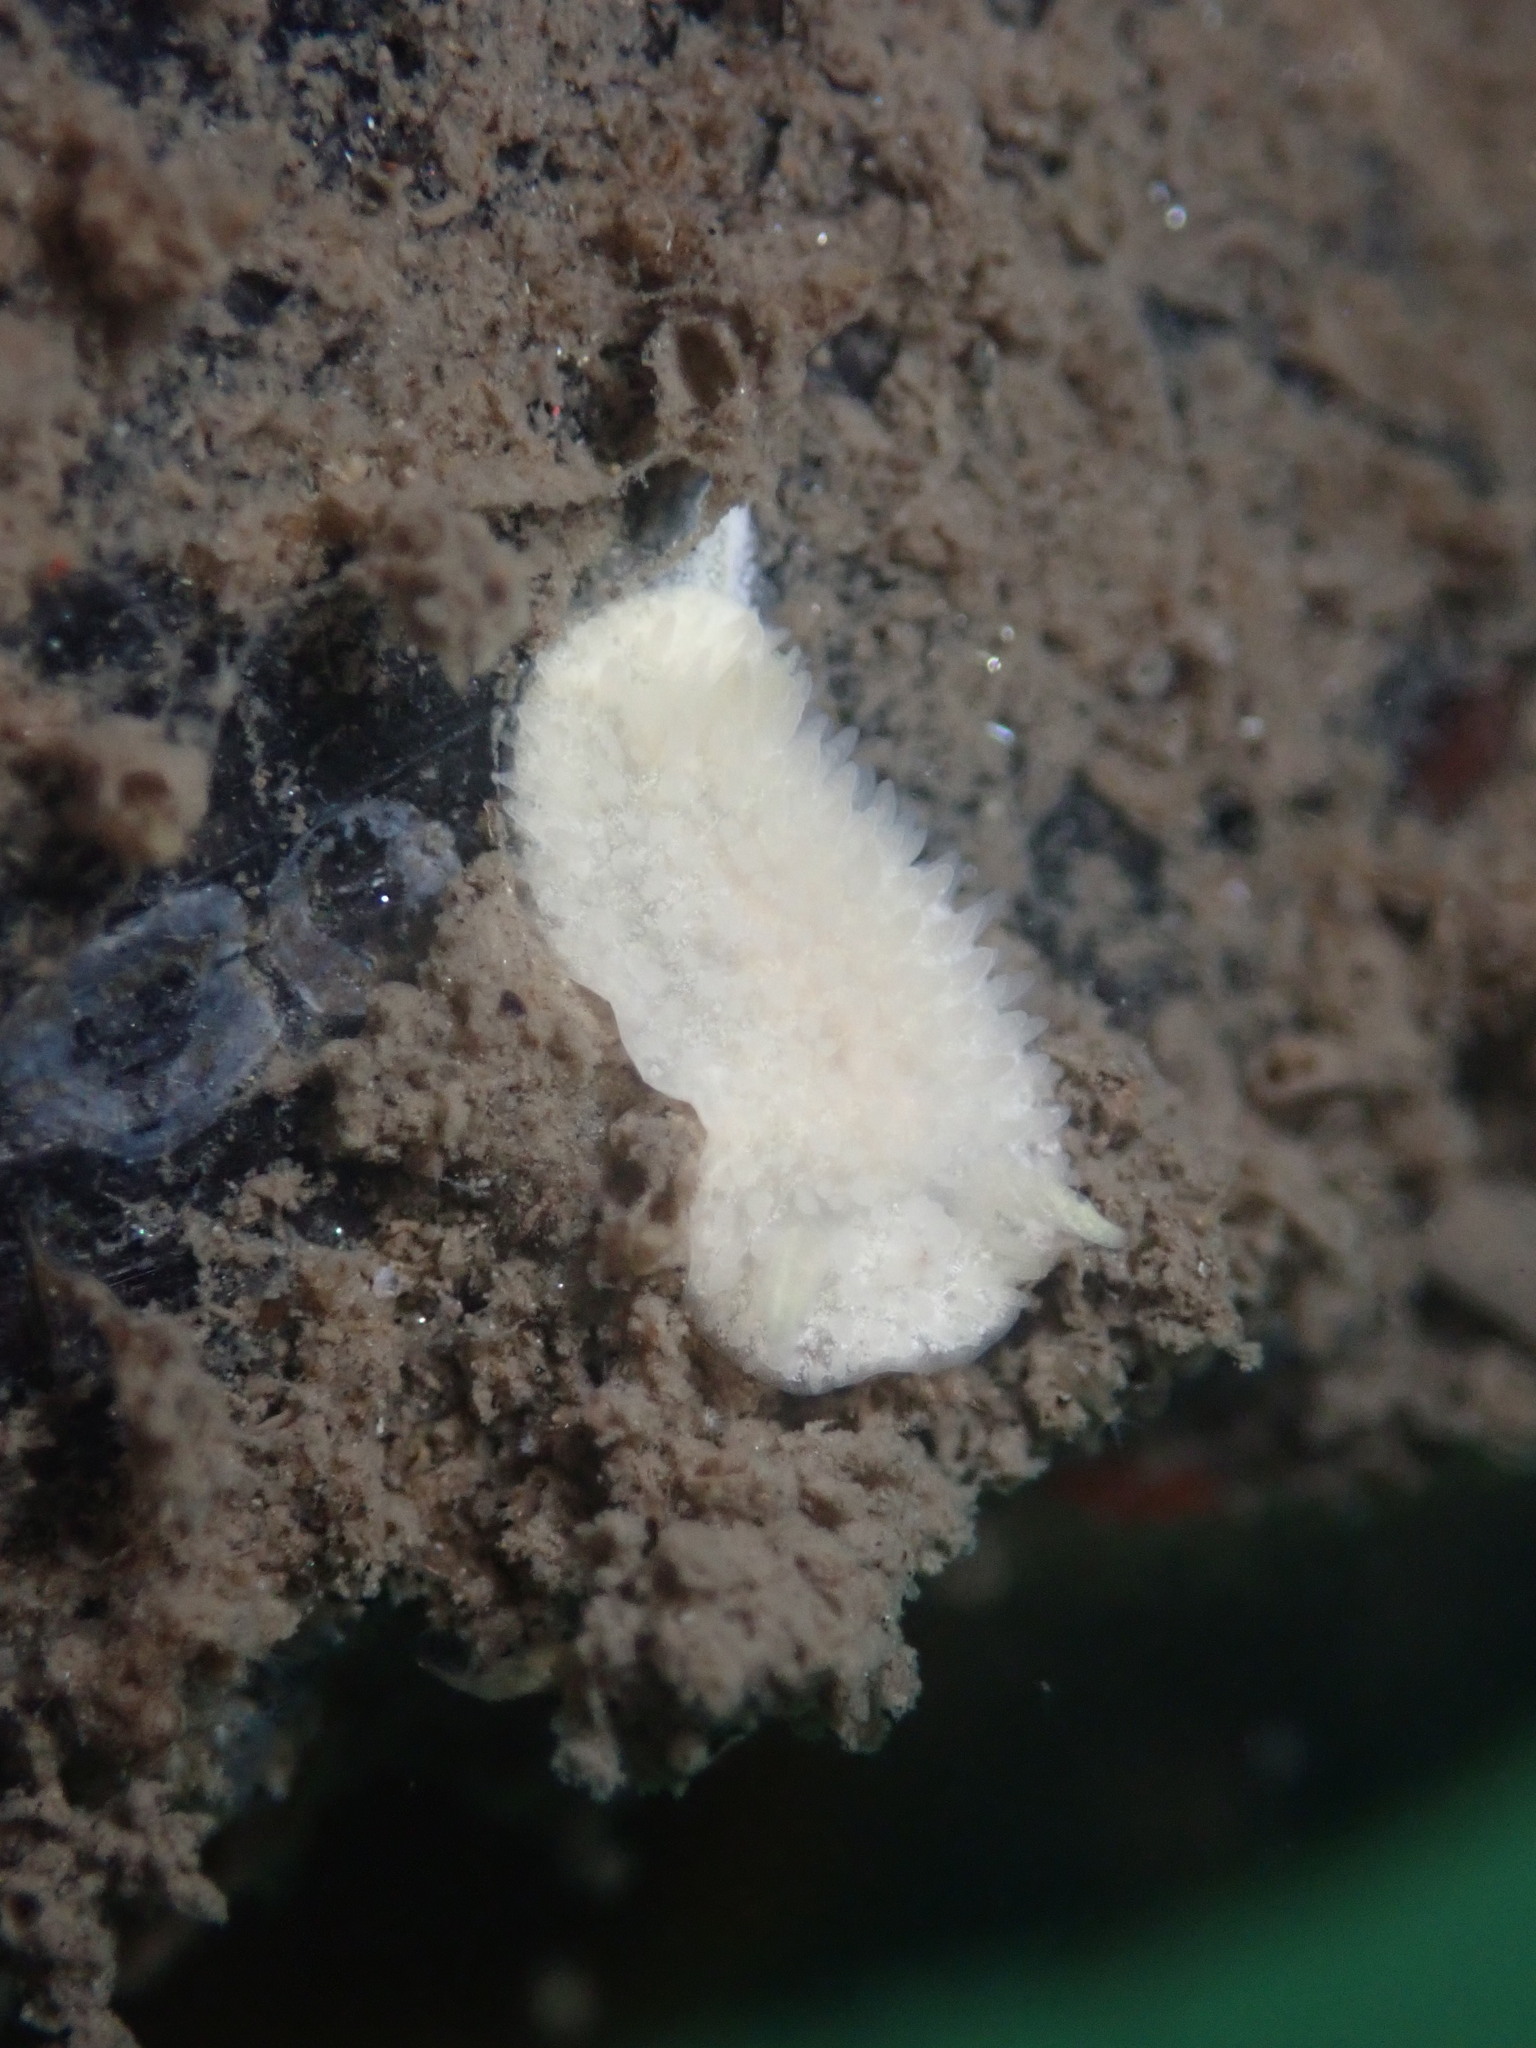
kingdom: Animalia
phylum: Mollusca
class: Gastropoda
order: Nudibranchia
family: Calycidorididae
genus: Diaphorodoris
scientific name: Diaphorodoris lirulatocauda
